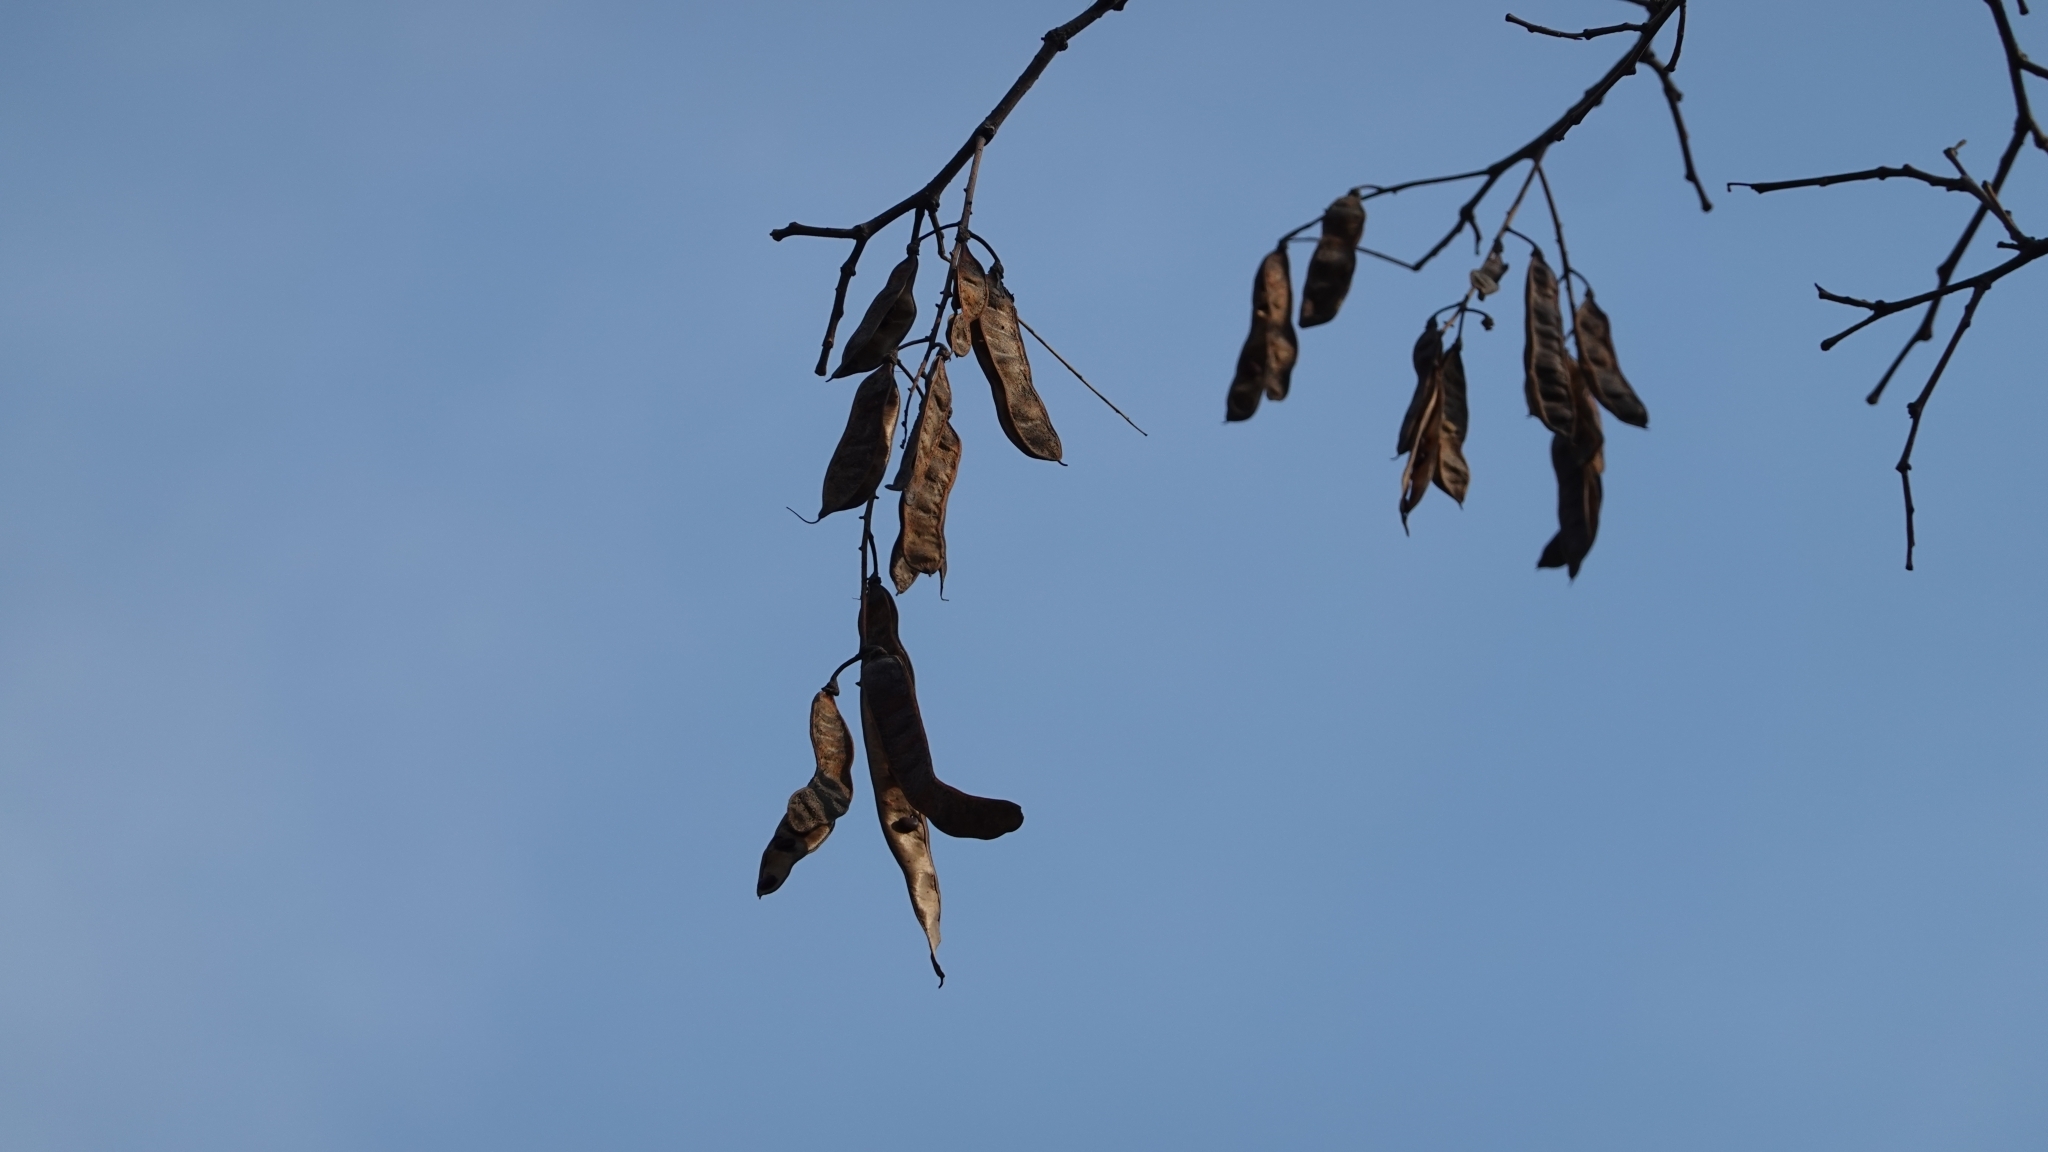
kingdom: Plantae
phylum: Tracheophyta
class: Magnoliopsida
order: Fabales
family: Fabaceae
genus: Robinia
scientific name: Robinia pseudoacacia
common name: Black locust
